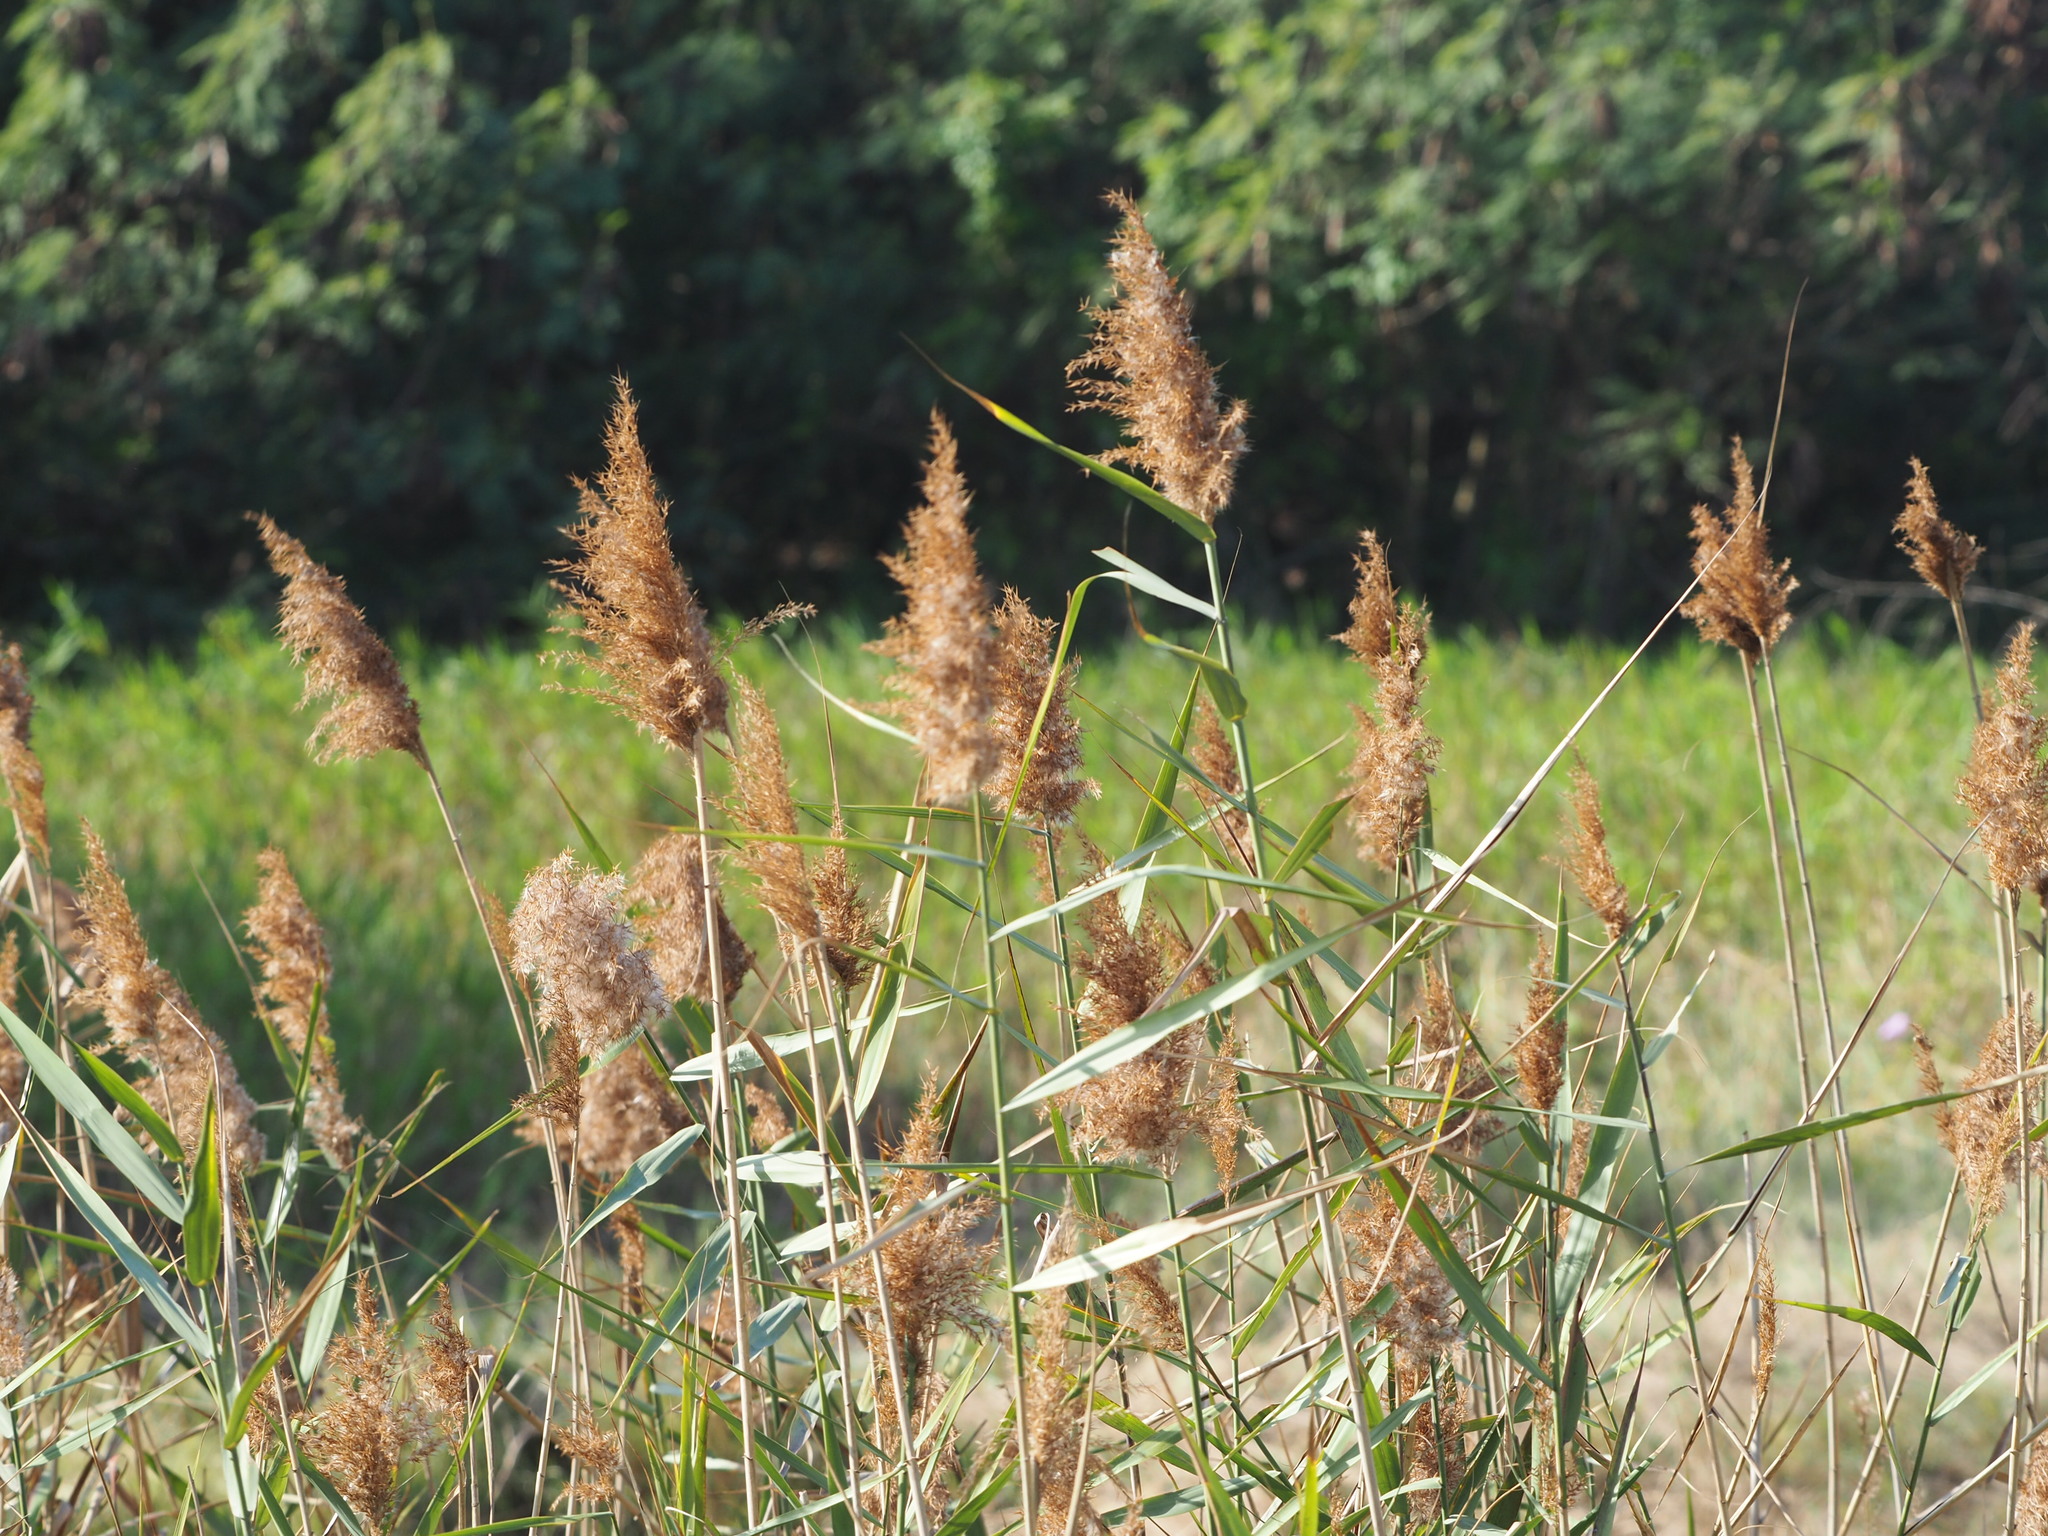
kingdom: Plantae
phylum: Tracheophyta
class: Liliopsida
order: Poales
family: Poaceae
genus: Phragmites
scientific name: Phragmites australis
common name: Common reed
